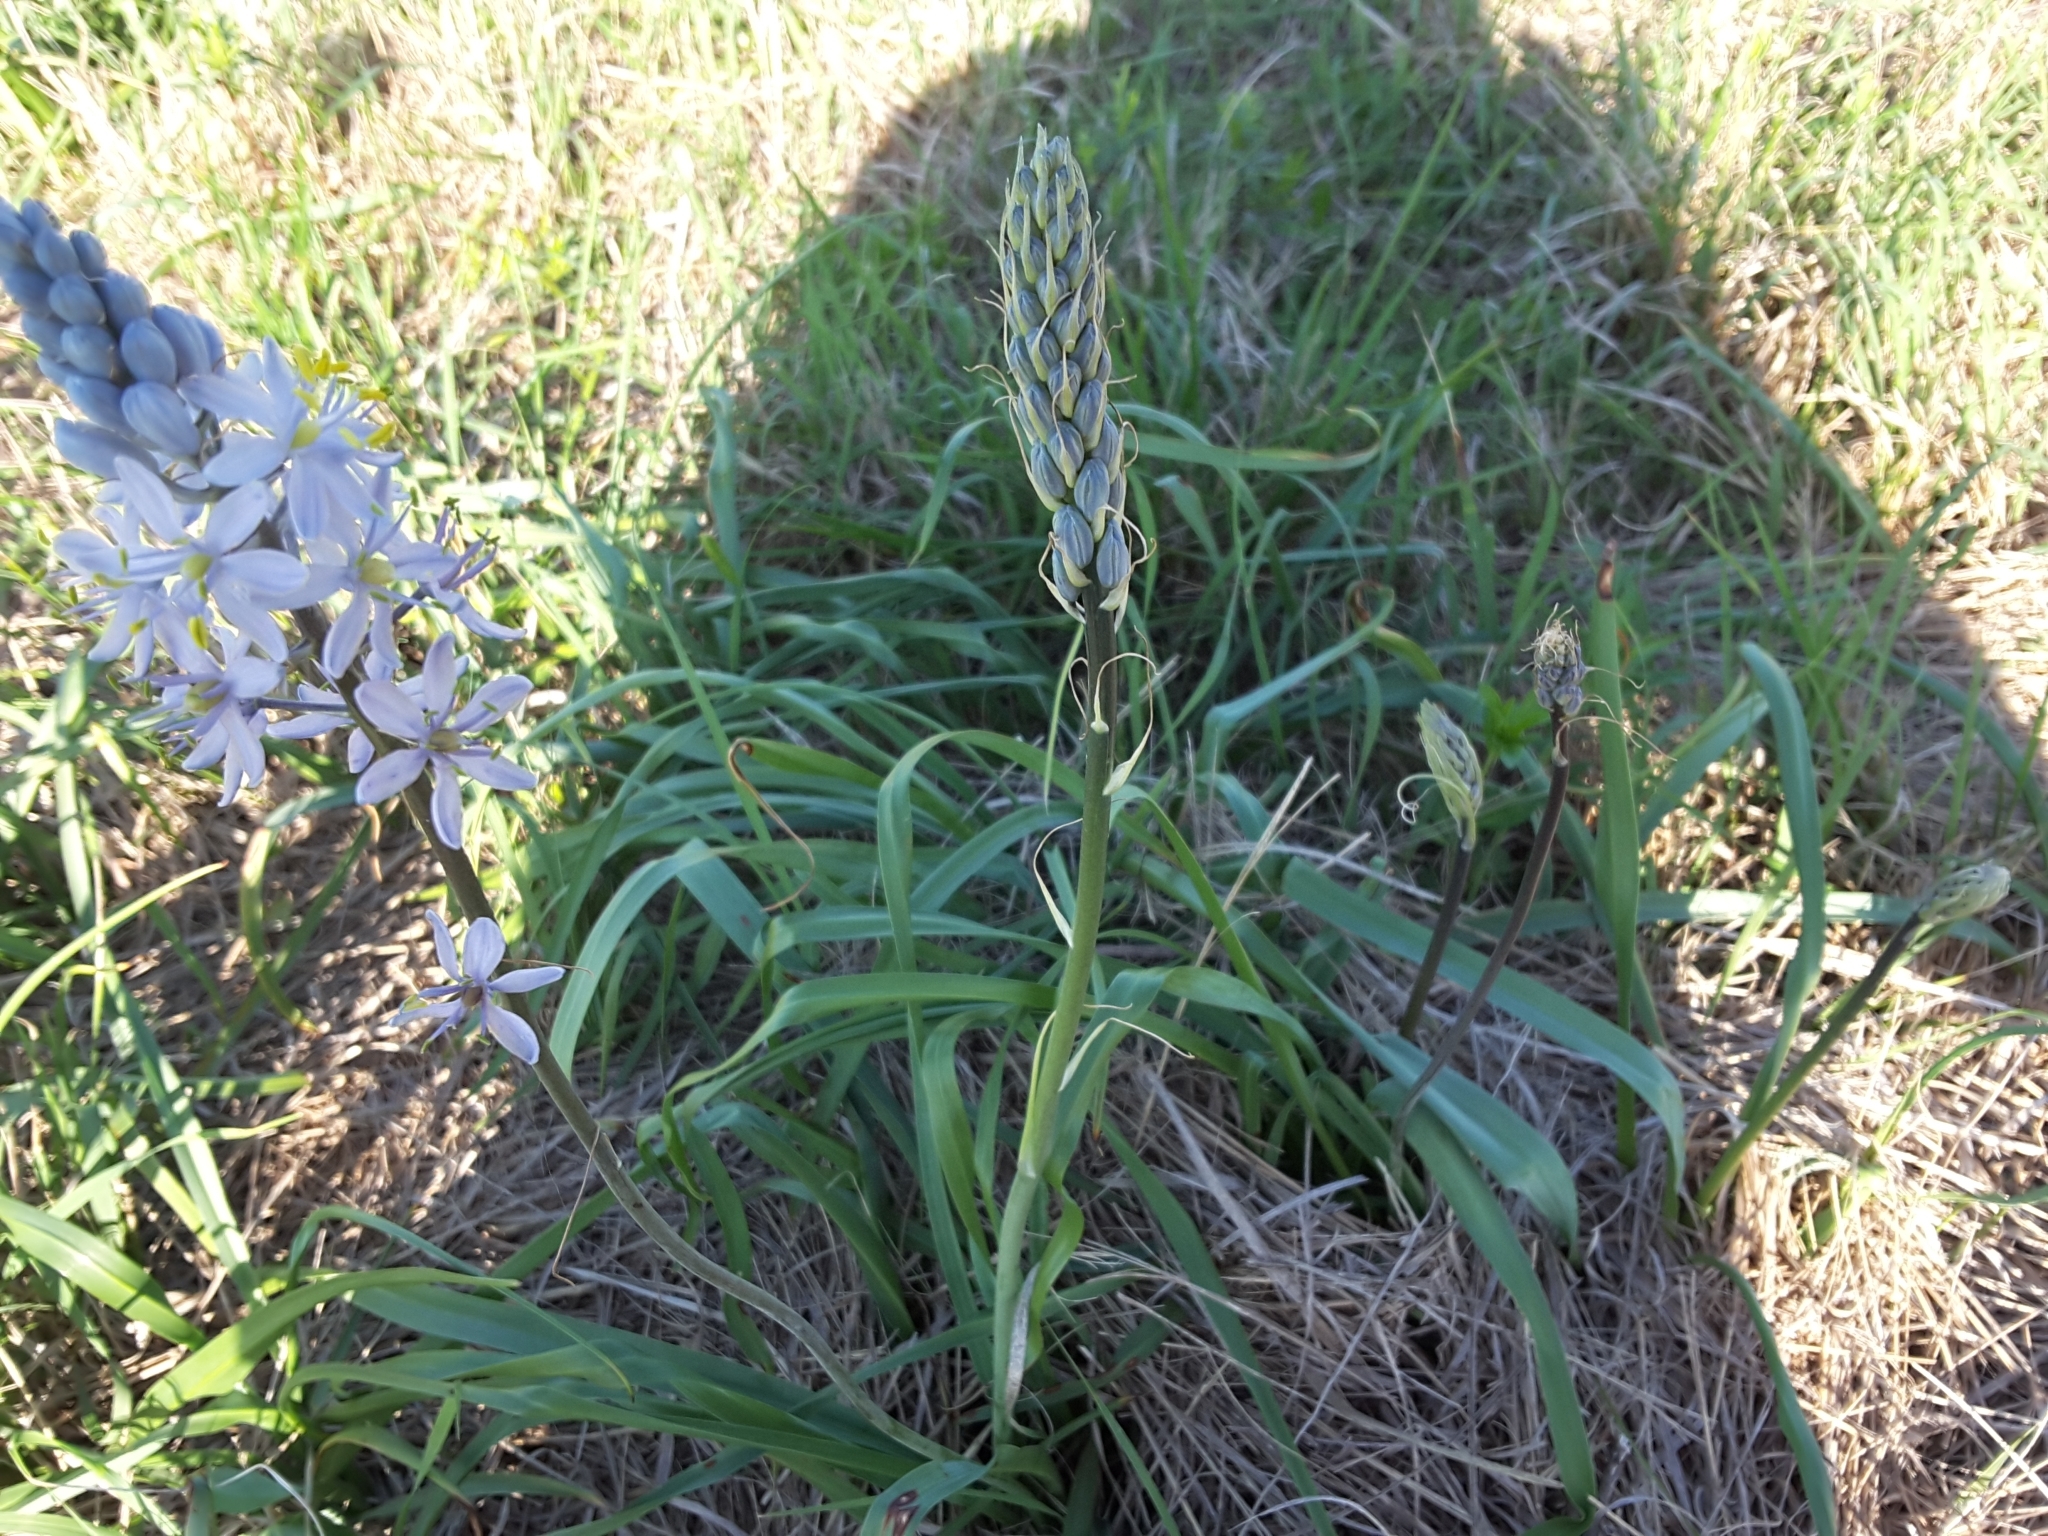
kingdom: Plantae
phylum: Tracheophyta
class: Liliopsida
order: Asparagales
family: Asparagaceae
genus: Camassia
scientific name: Camassia scilloides
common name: Wild hyacinth
